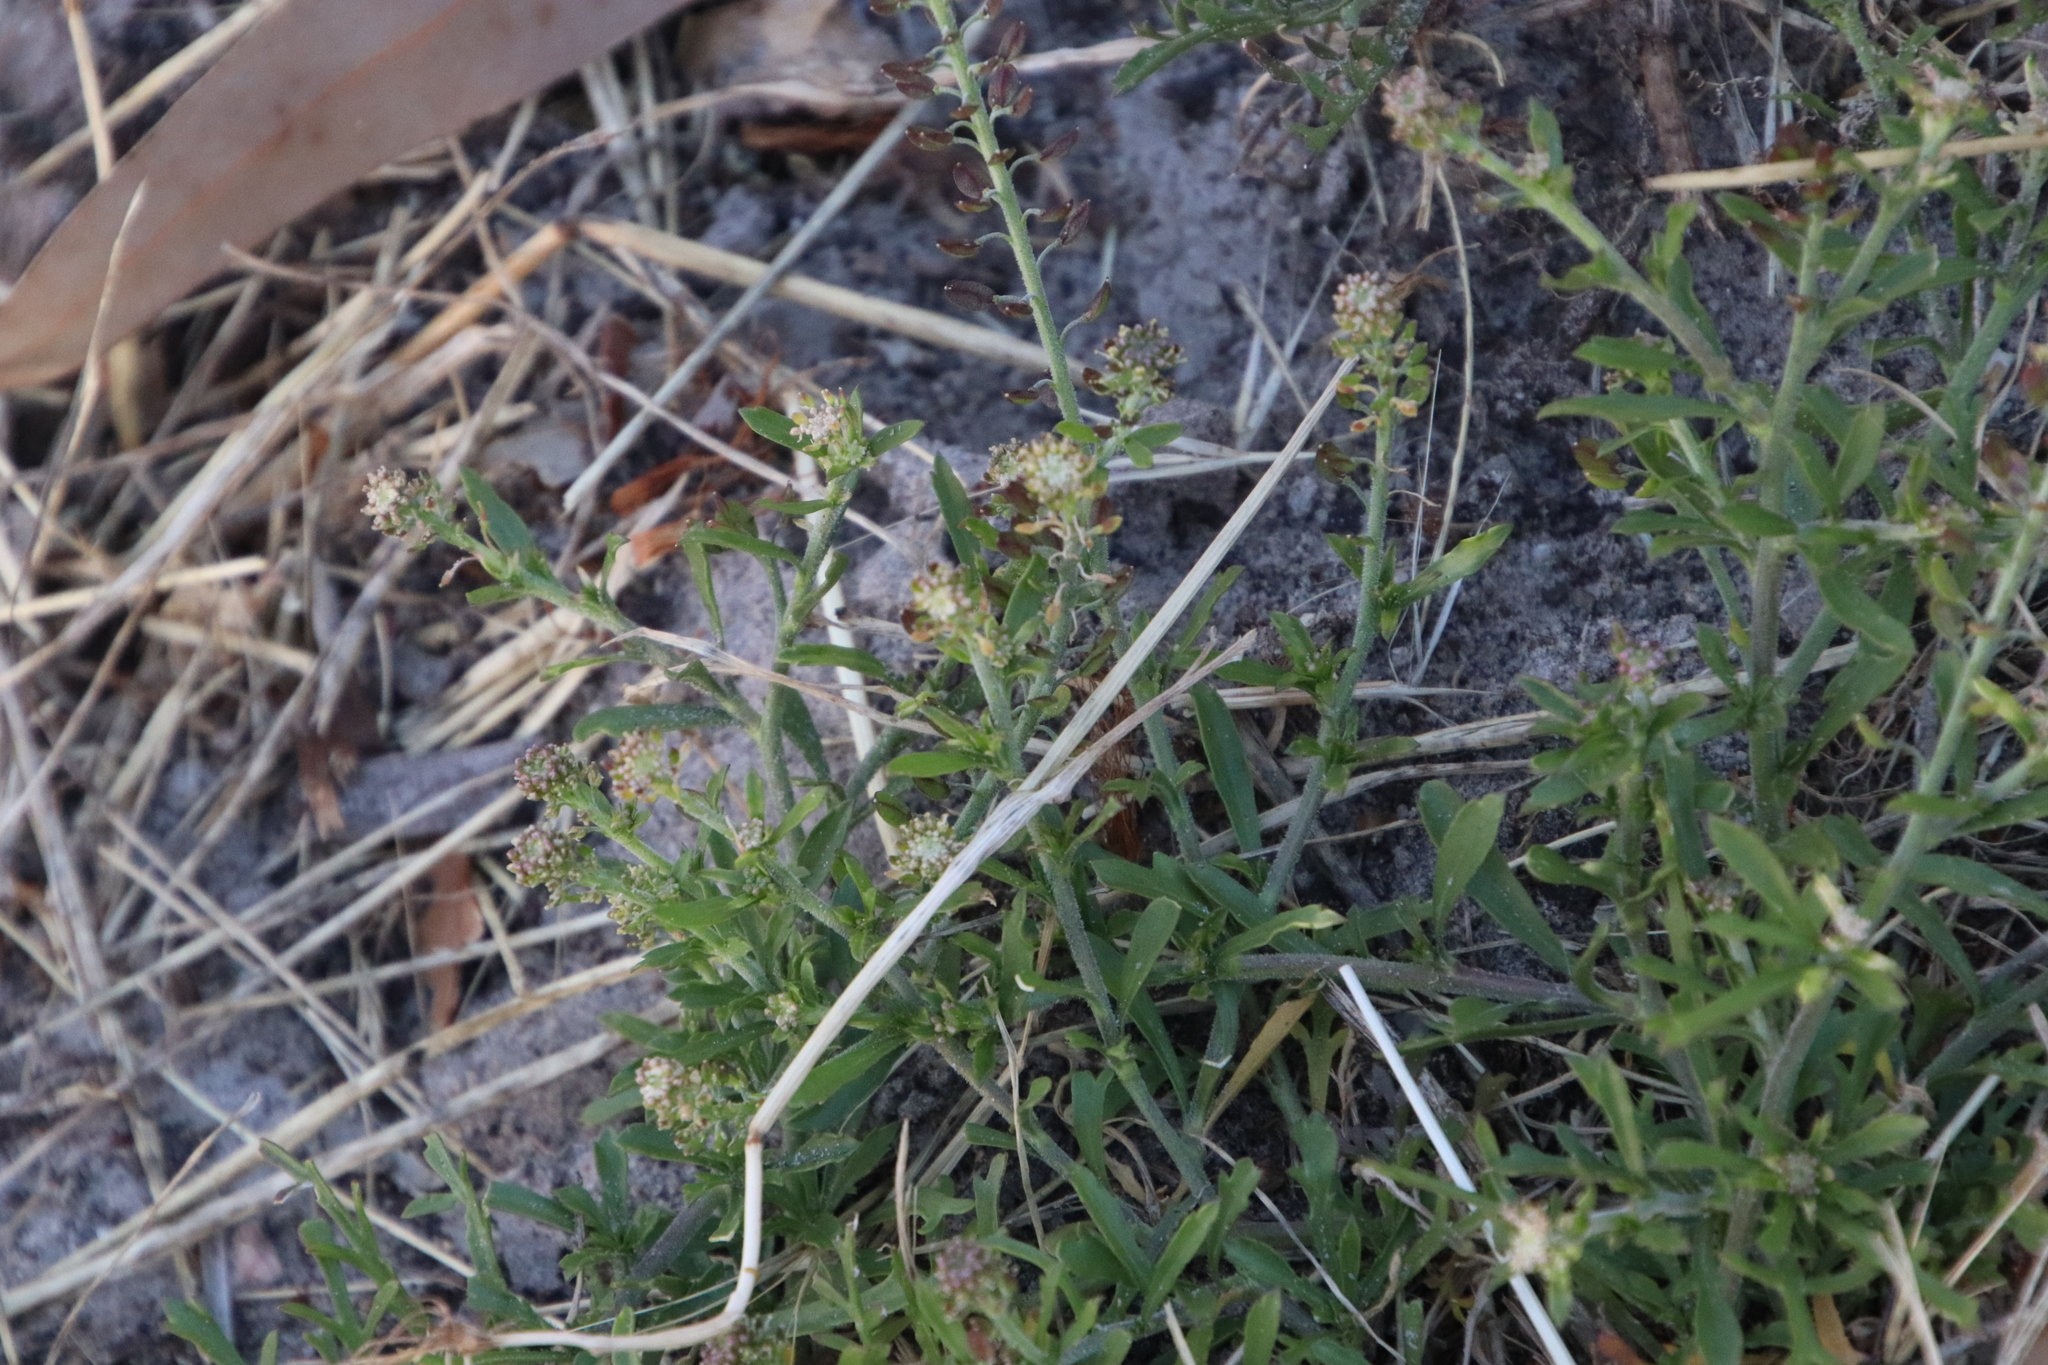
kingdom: Plantae
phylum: Tracheophyta
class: Magnoliopsida
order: Brassicales
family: Brassicaceae
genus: Lepidium
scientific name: Lepidium africanum
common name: African pepperwort
